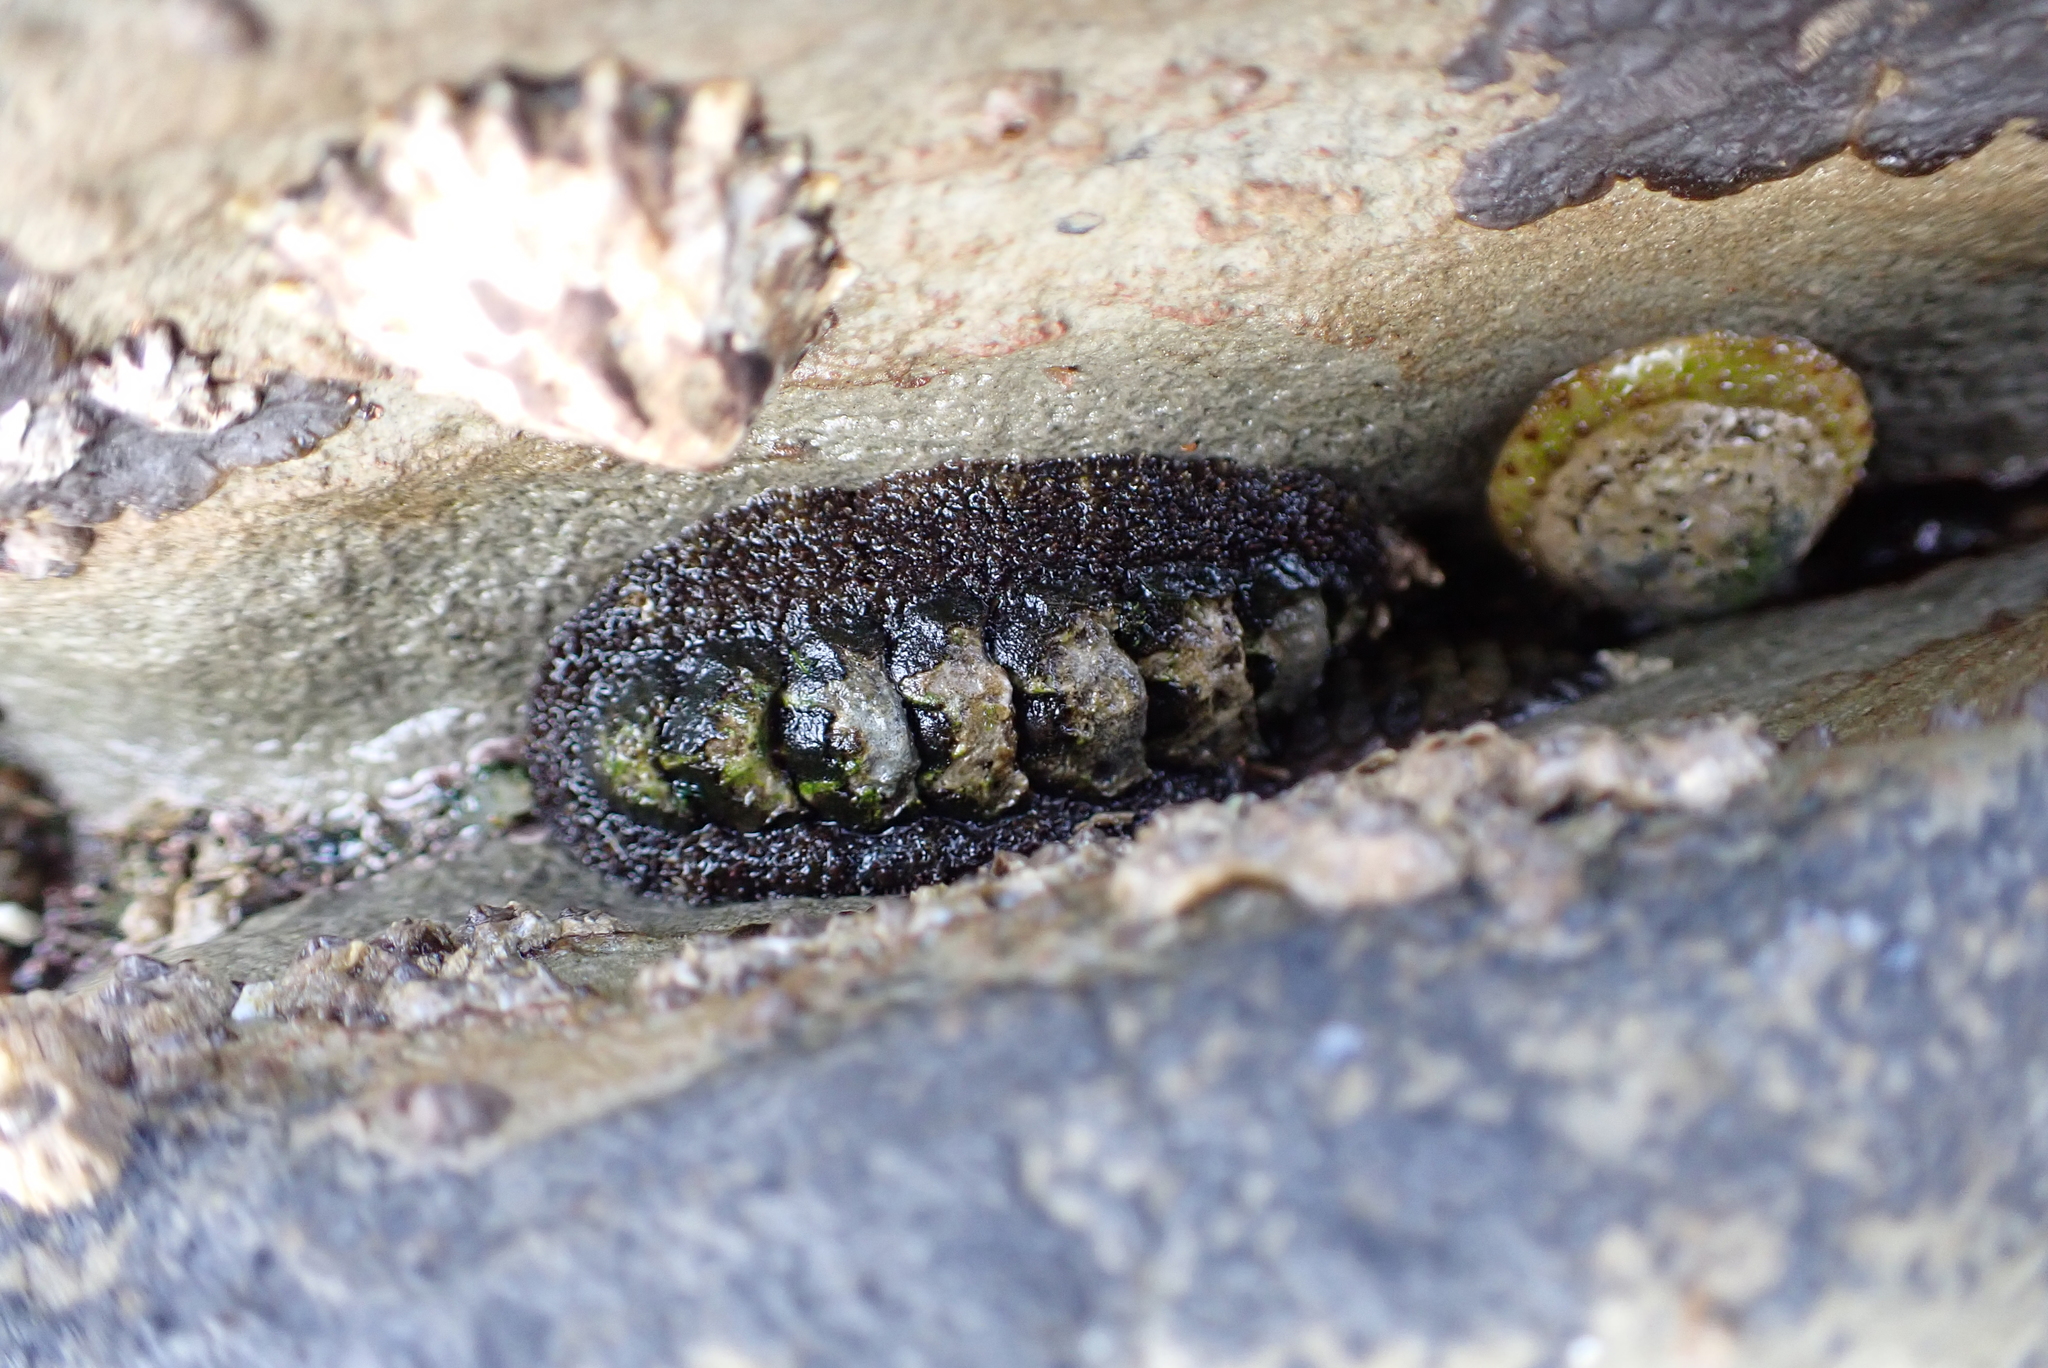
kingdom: Animalia
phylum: Mollusca
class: Polyplacophora
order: Chitonida
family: Tonicellidae
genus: Nuttallina
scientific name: Nuttallina californica
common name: California nuttall chiton
